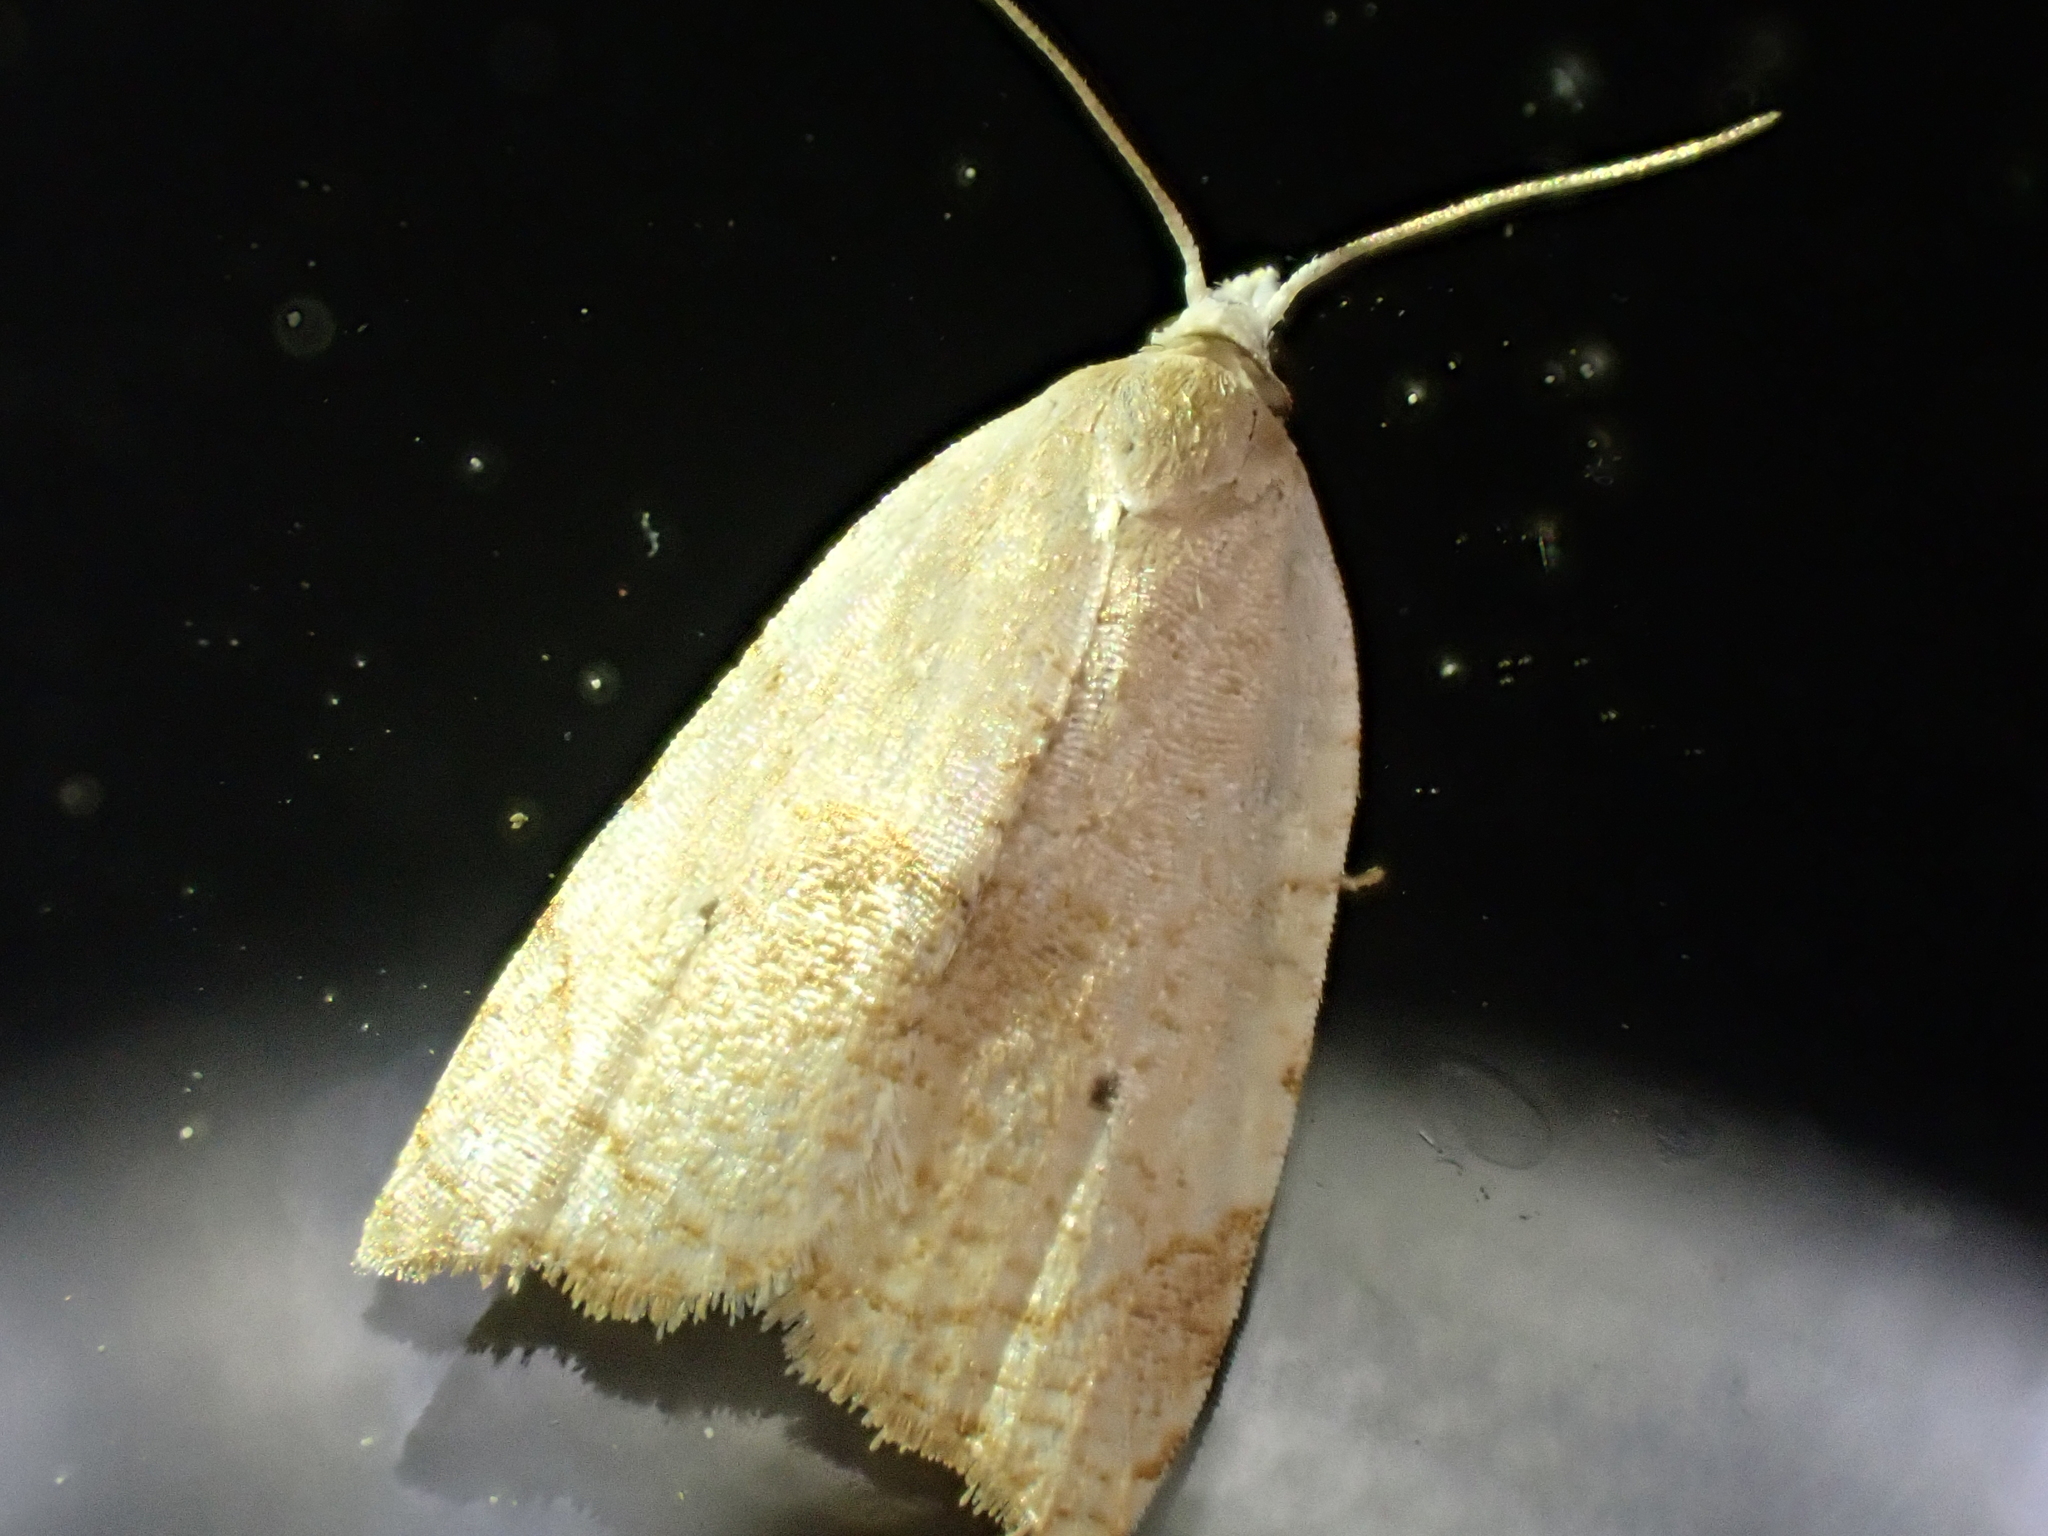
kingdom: Animalia
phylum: Arthropoda
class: Insecta
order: Lepidoptera
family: Tortricidae
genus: Coelostathma
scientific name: Coelostathma discopunctana
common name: Batman moth
